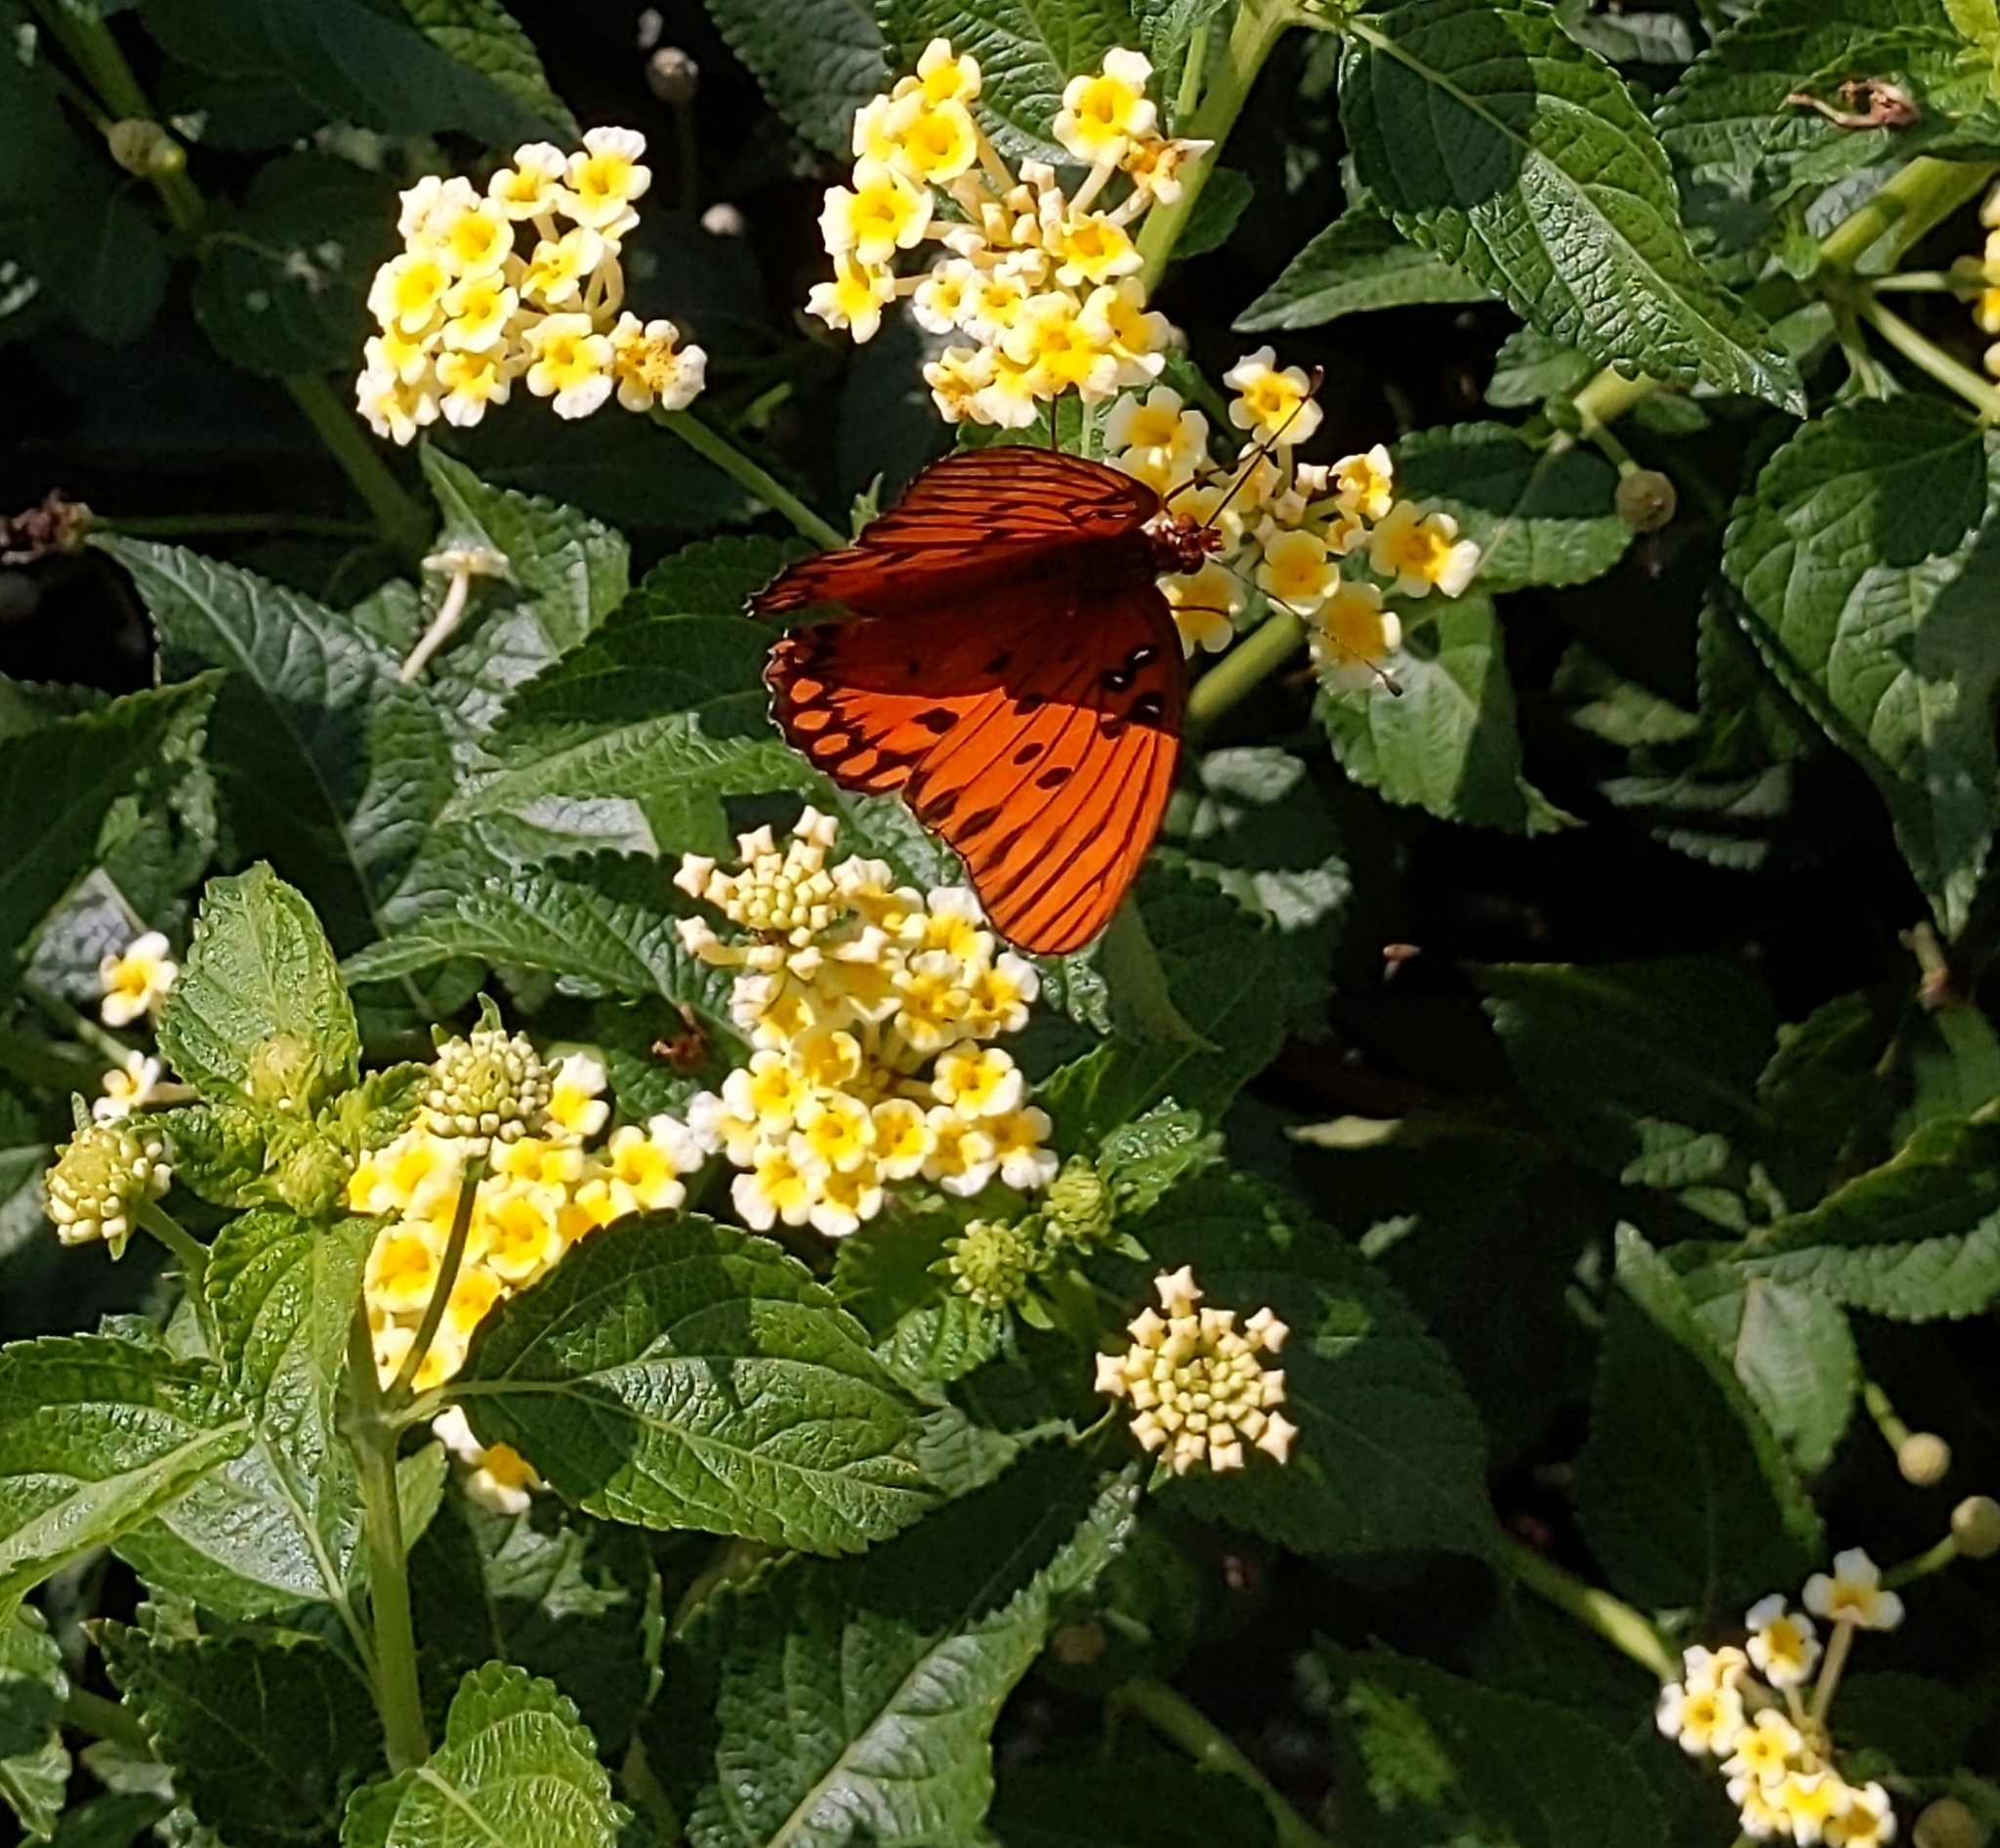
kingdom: Animalia
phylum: Arthropoda
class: Insecta
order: Lepidoptera
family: Nymphalidae
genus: Dione
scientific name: Dione vanillae
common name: Gulf fritillary
